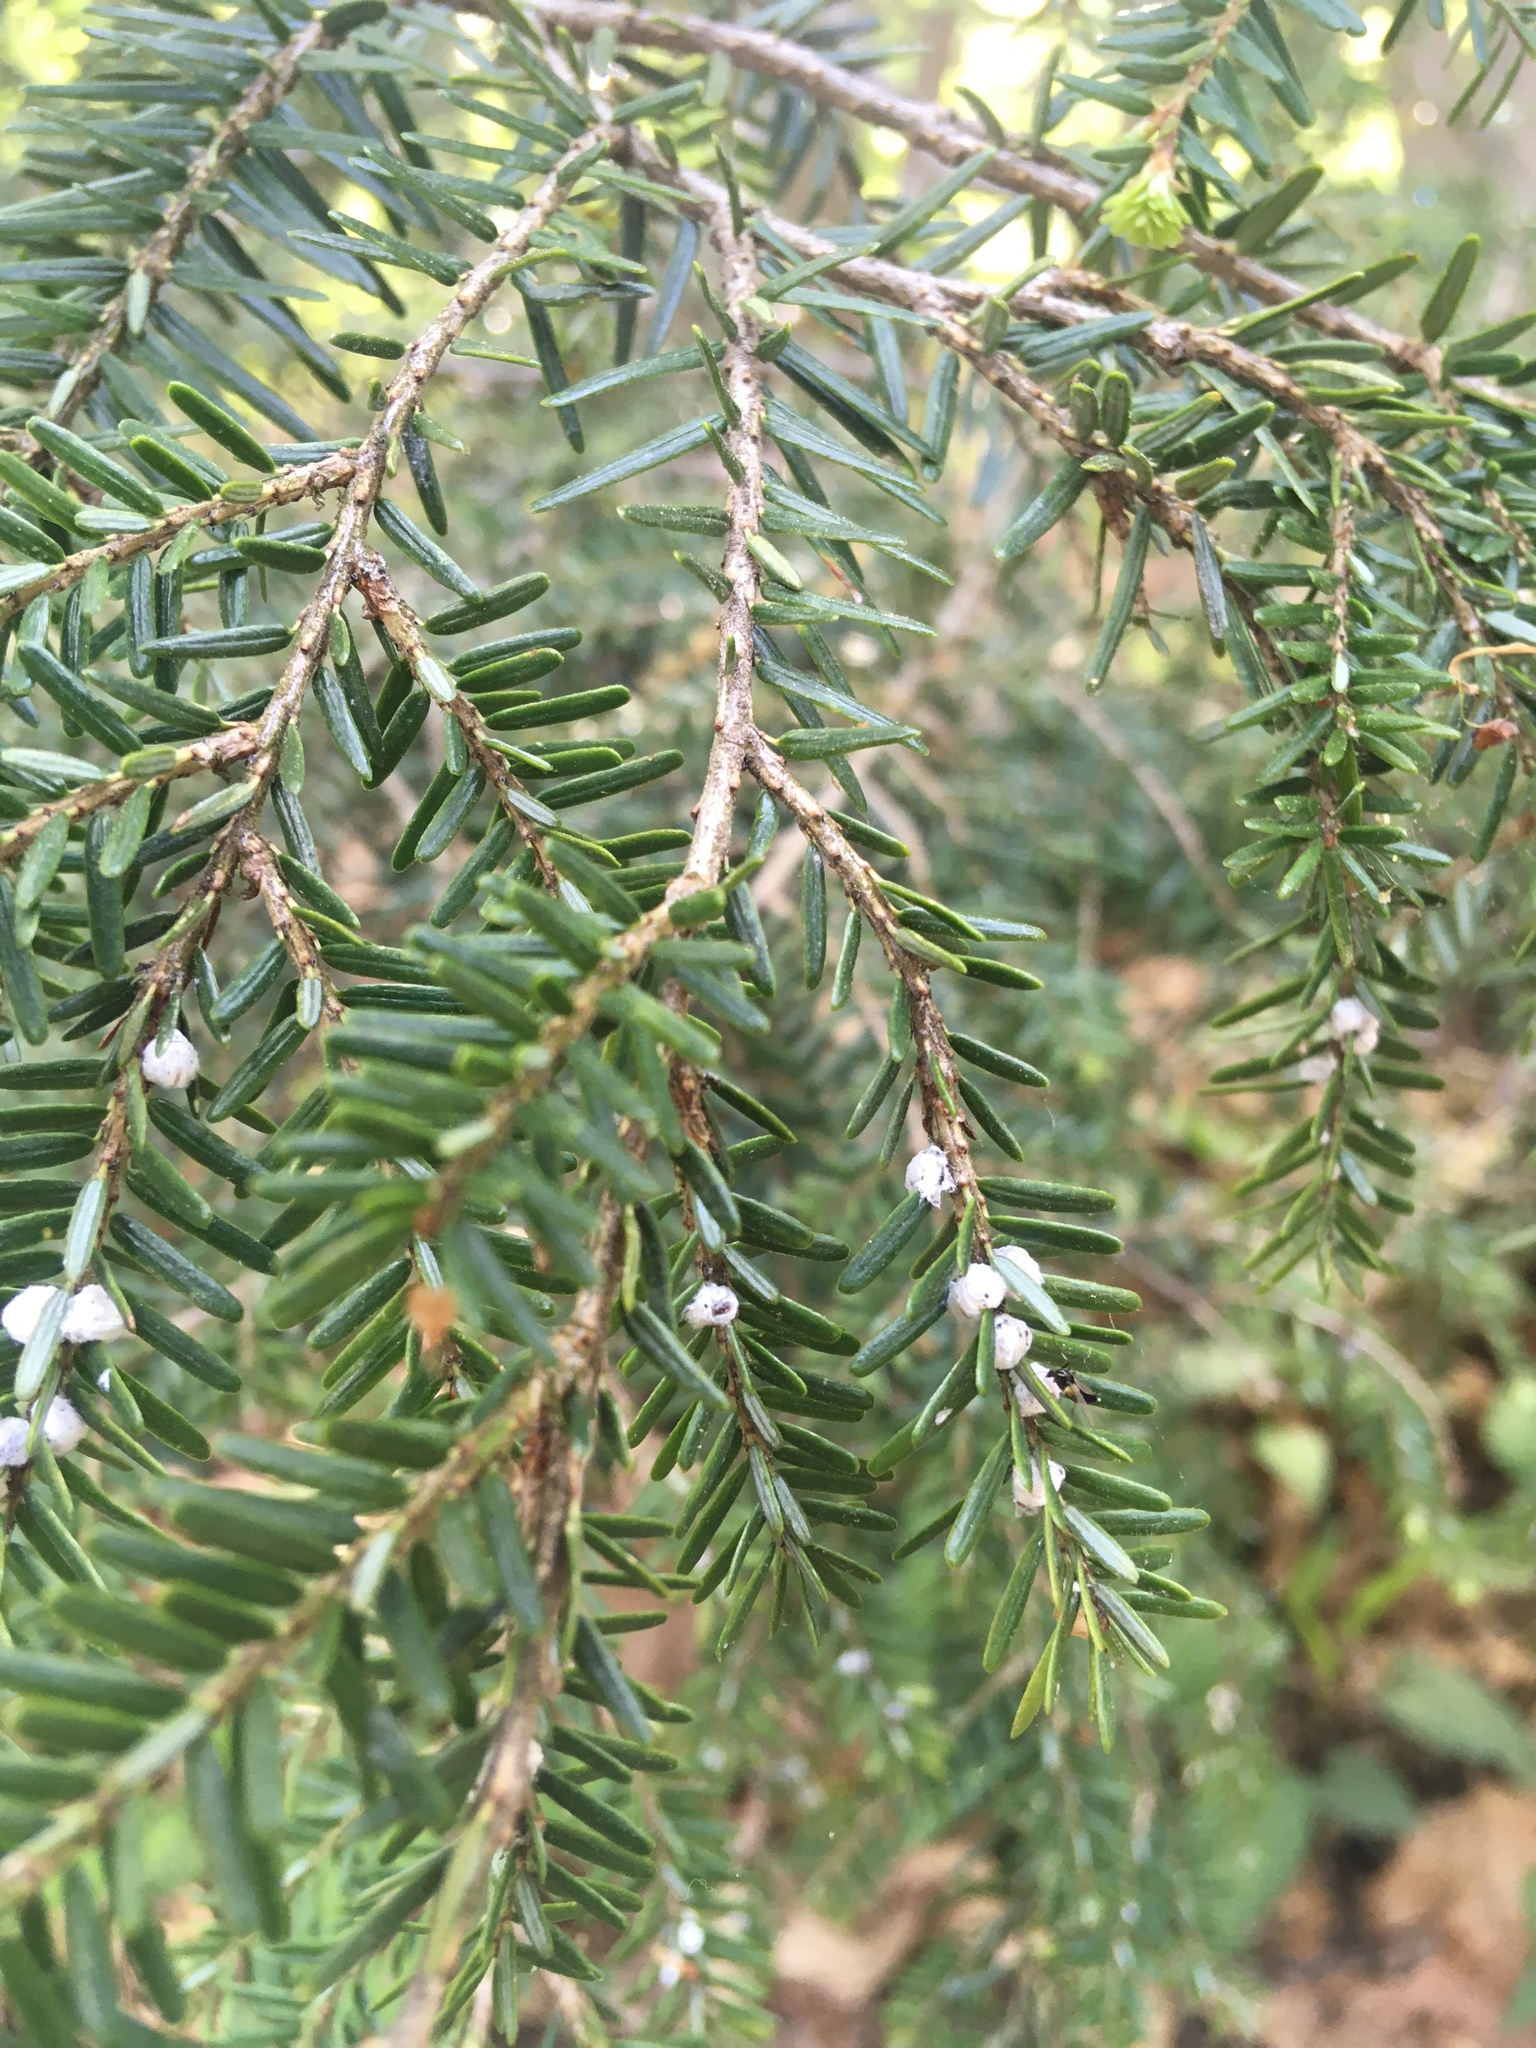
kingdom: Plantae
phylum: Tracheophyta
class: Pinopsida
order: Pinales
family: Pinaceae
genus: Tsuga
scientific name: Tsuga canadensis
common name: Eastern hemlock
